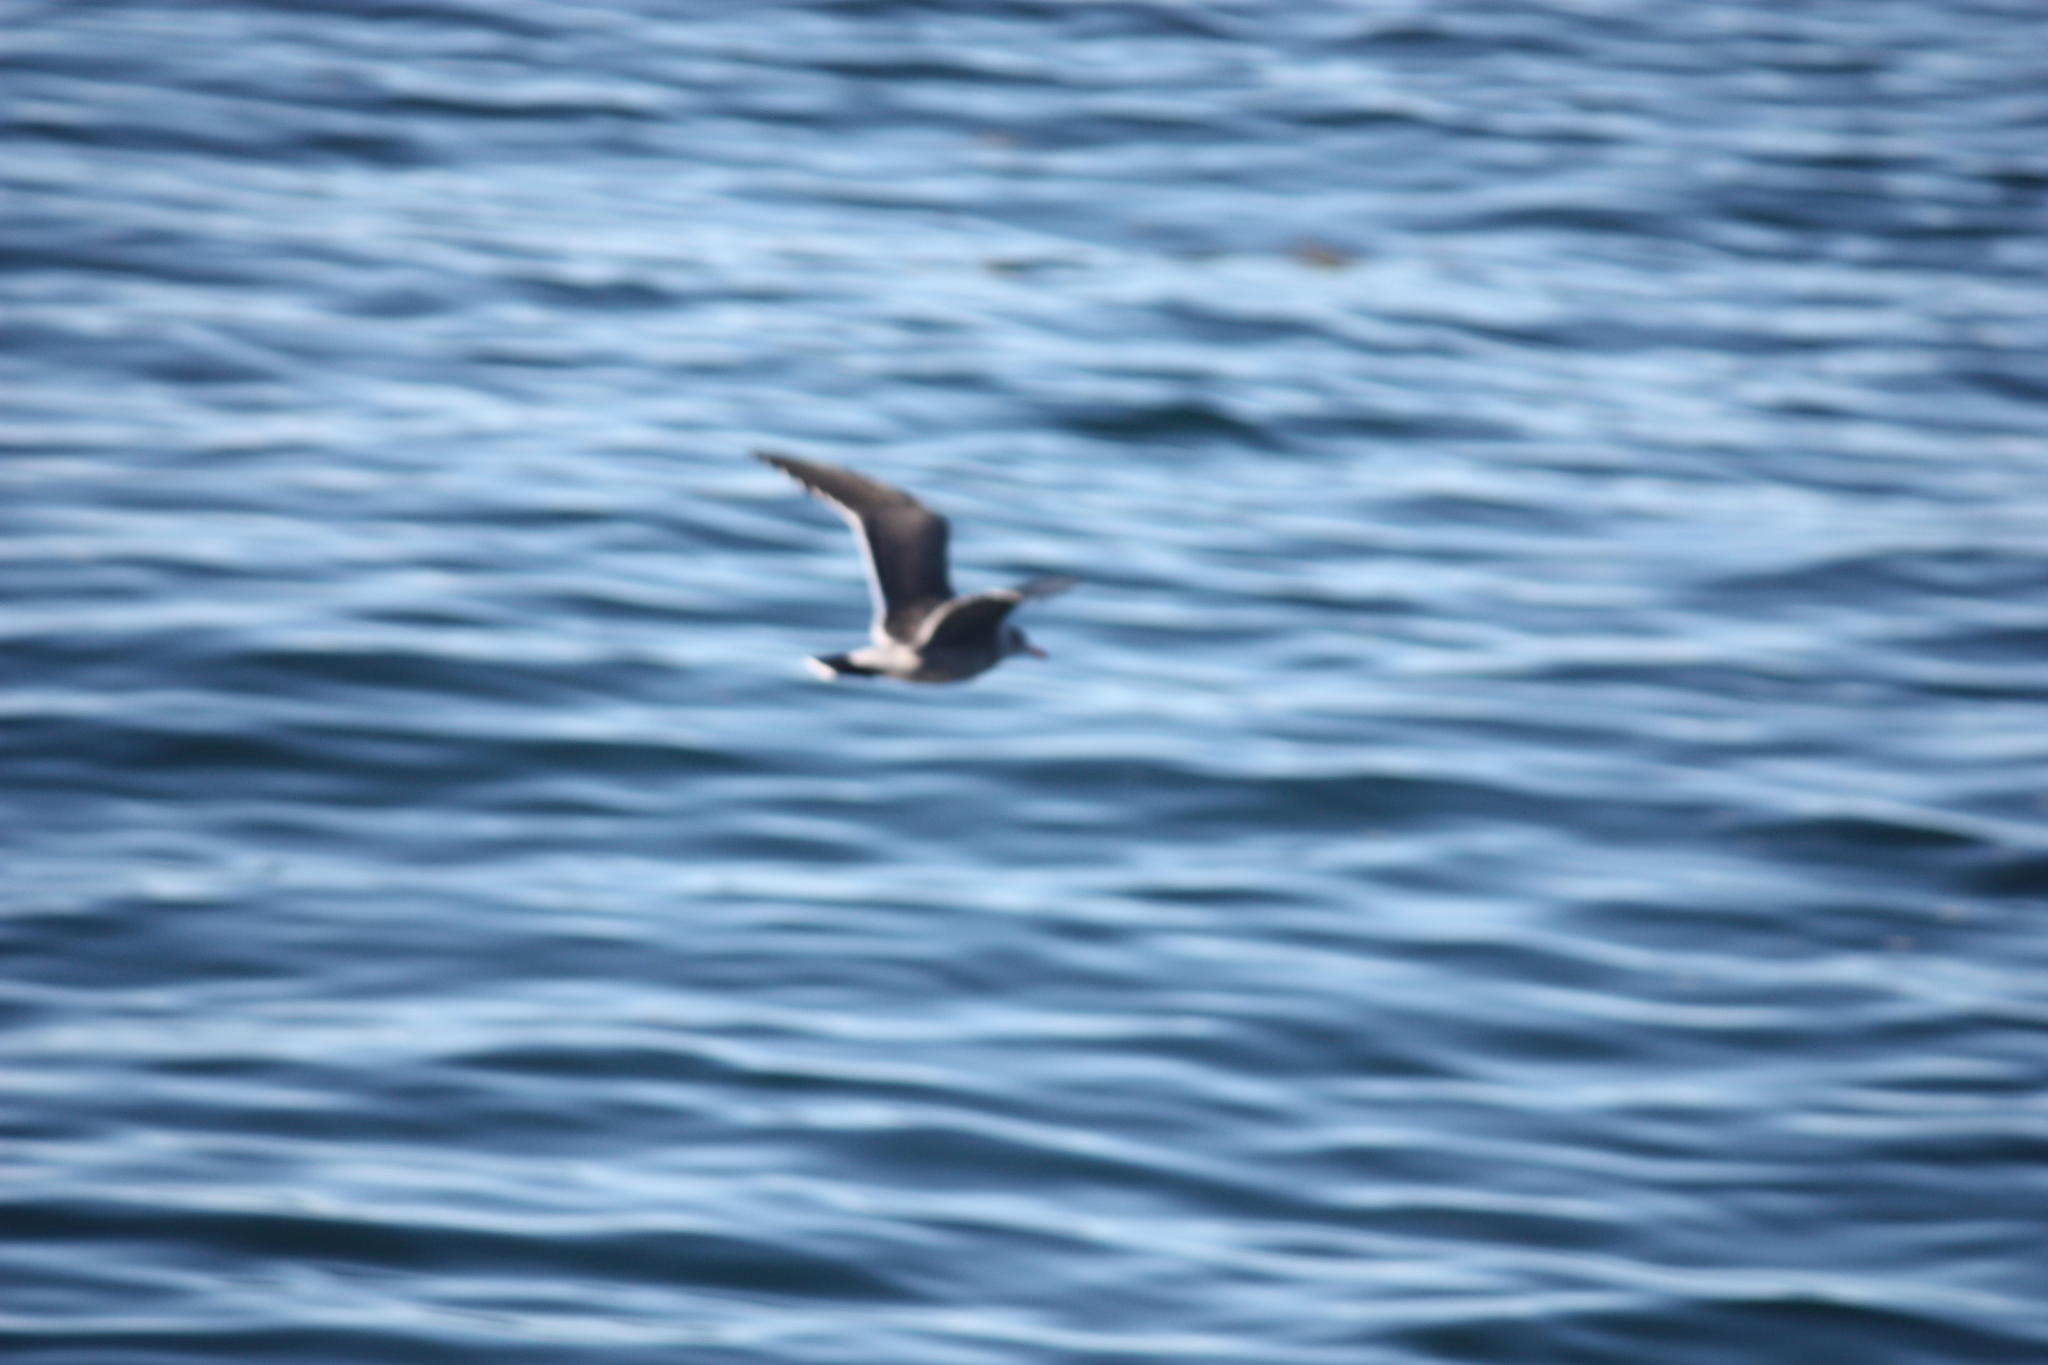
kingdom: Animalia
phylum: Chordata
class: Aves
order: Charadriiformes
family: Laridae
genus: Larus
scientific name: Larus heermanni
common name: Heermann's gull
